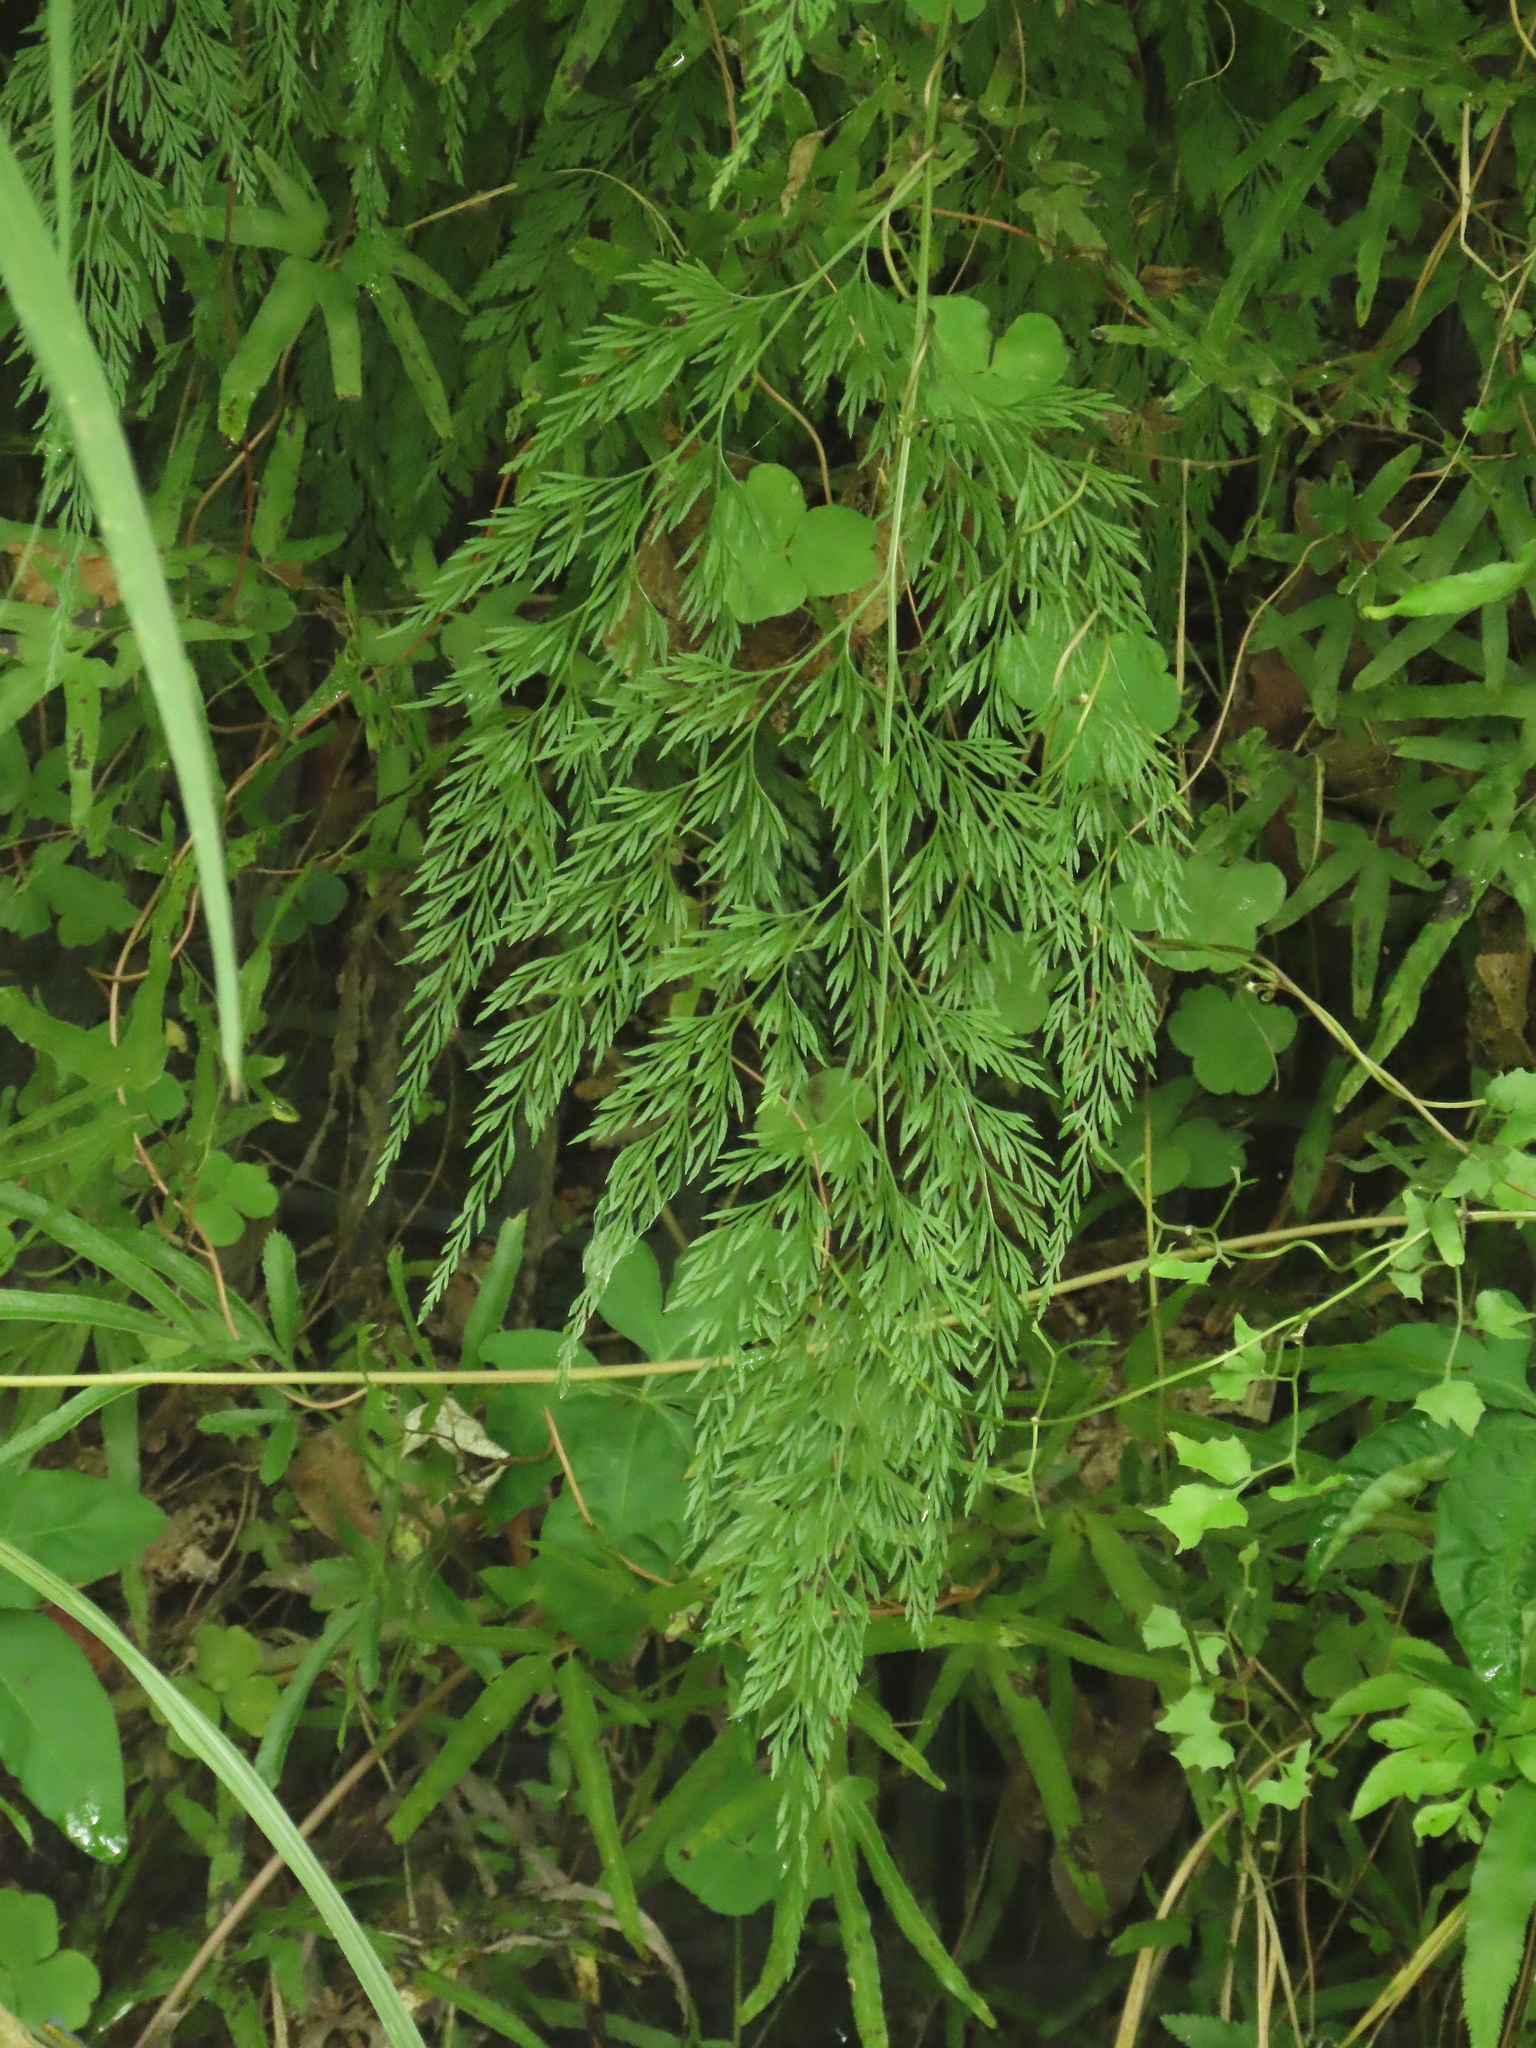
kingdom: Plantae
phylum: Tracheophyta
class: Polypodiopsida
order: Polypodiales
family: Pteridaceae
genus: Onychium
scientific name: Onychium japonicum
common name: Carrot fern
